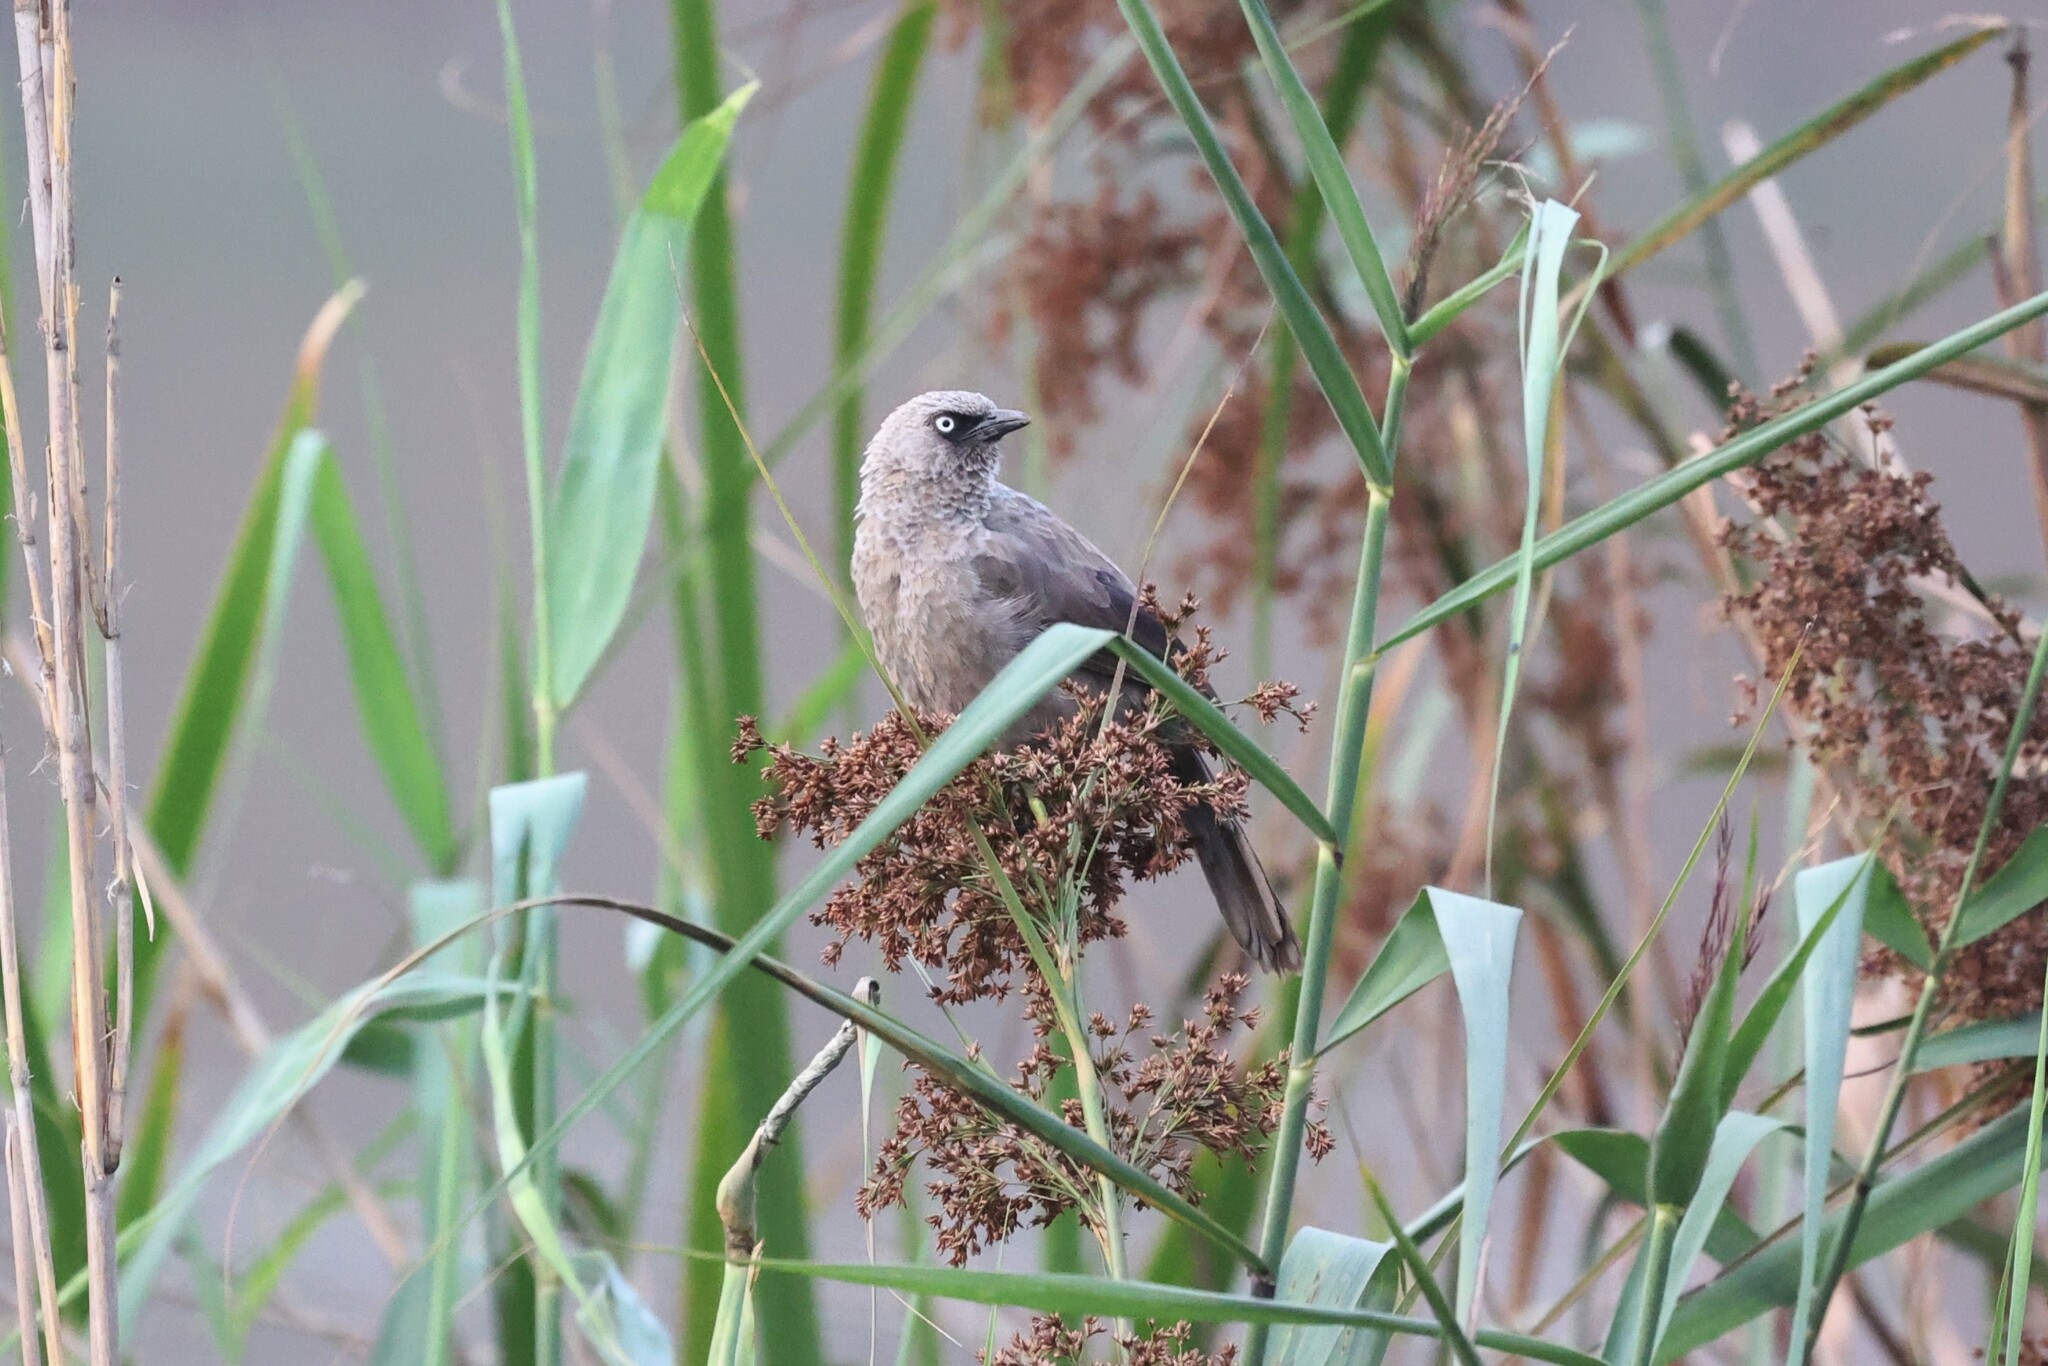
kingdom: Animalia
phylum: Chordata
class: Aves
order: Passeriformes
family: Leiothrichidae
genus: Turdoides
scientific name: Turdoides sharpei
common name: Black-lored babbler
